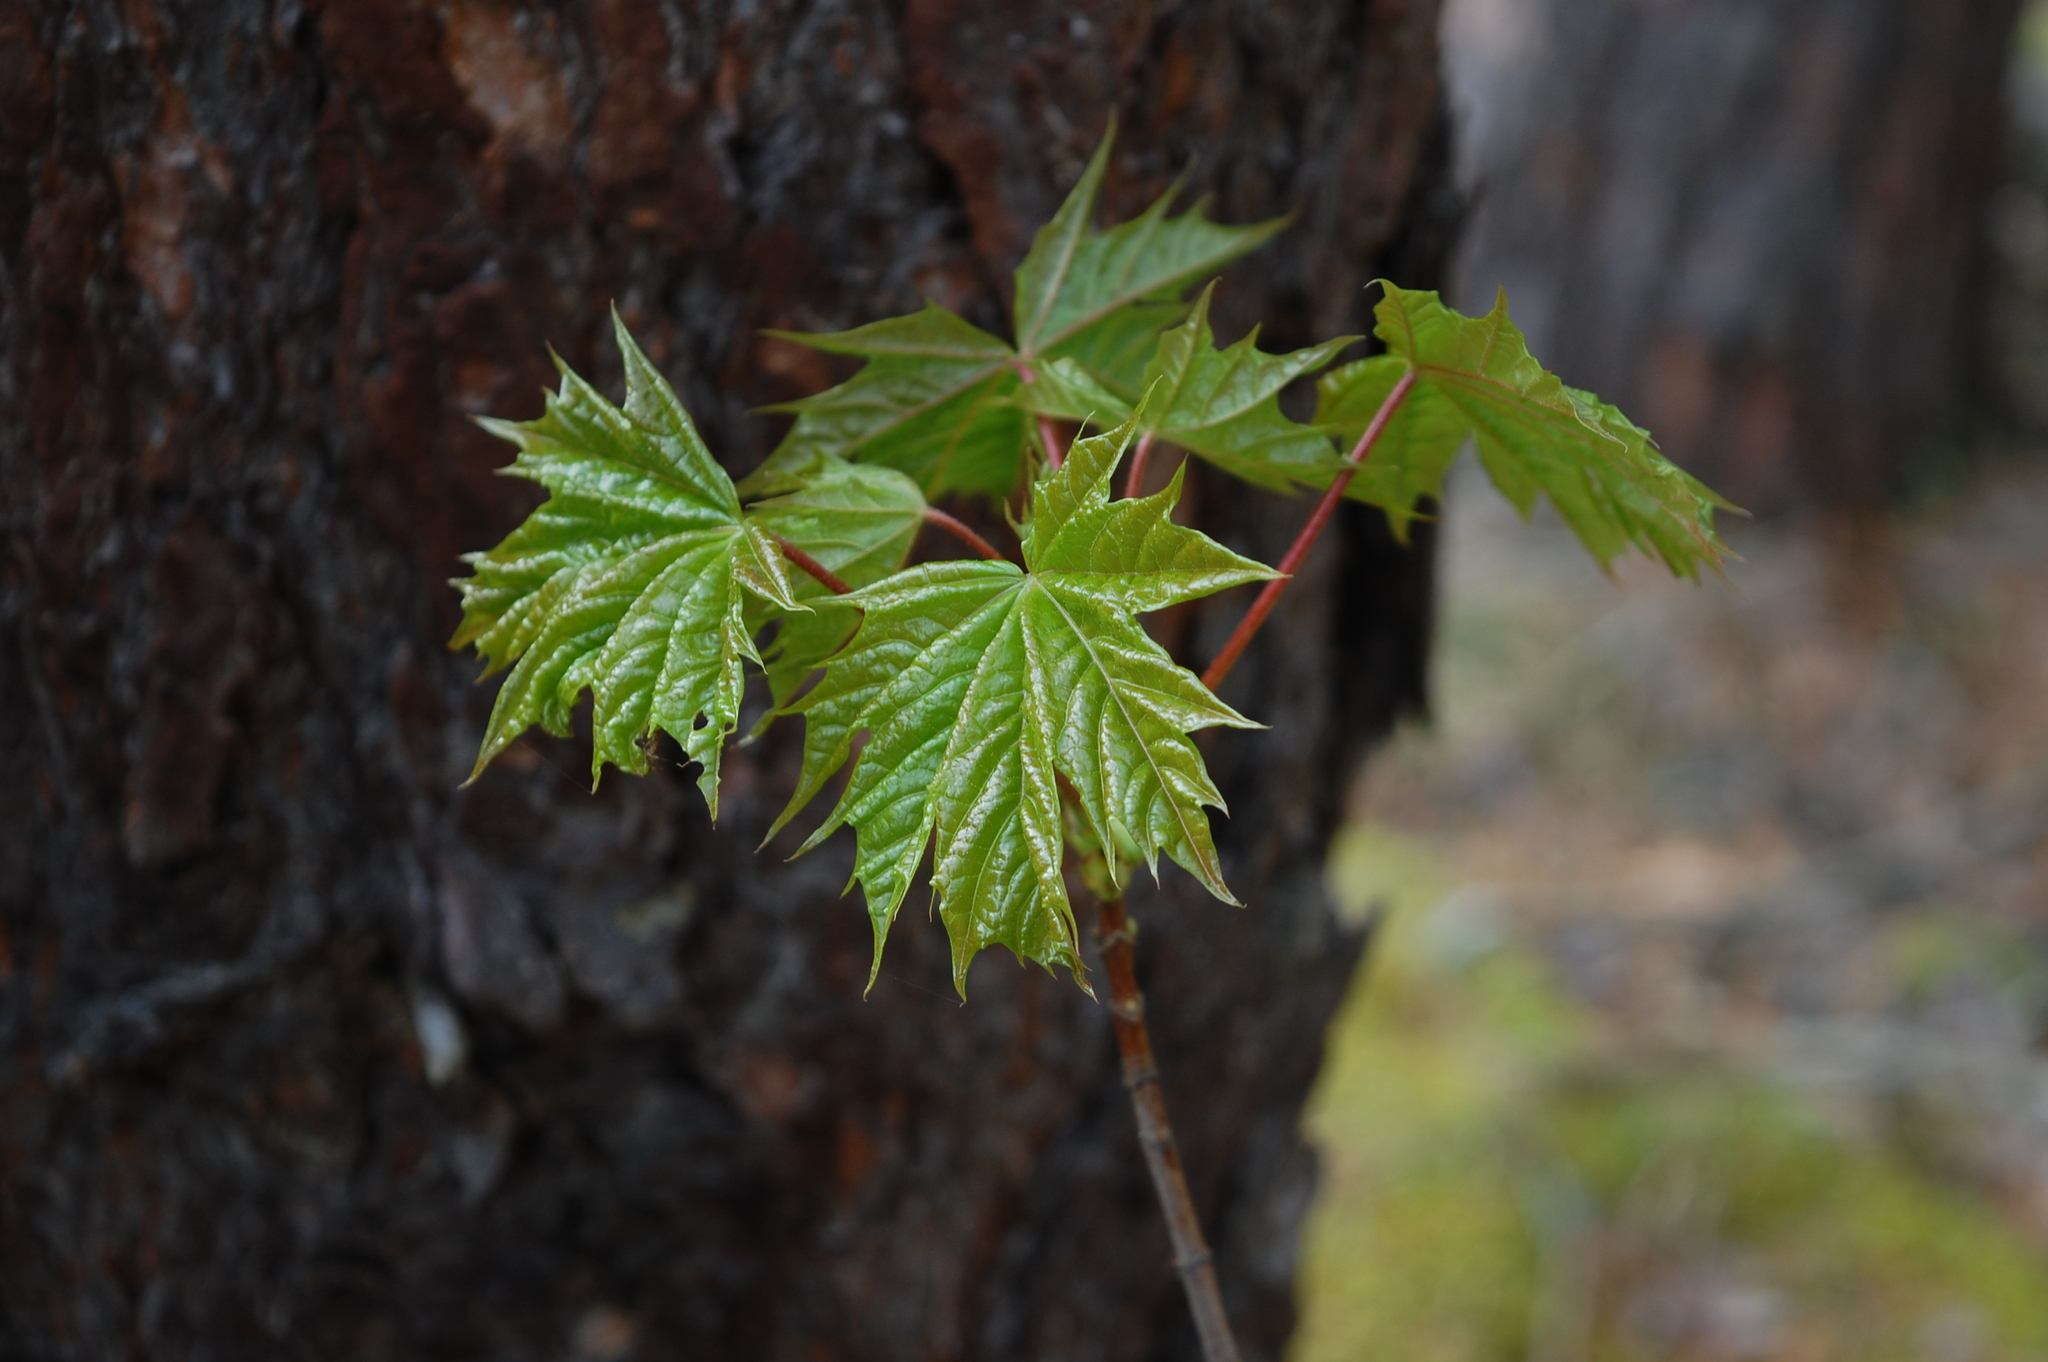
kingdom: Plantae
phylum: Tracheophyta
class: Magnoliopsida
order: Sapindales
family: Sapindaceae
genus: Acer
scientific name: Acer platanoides
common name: Norway maple
